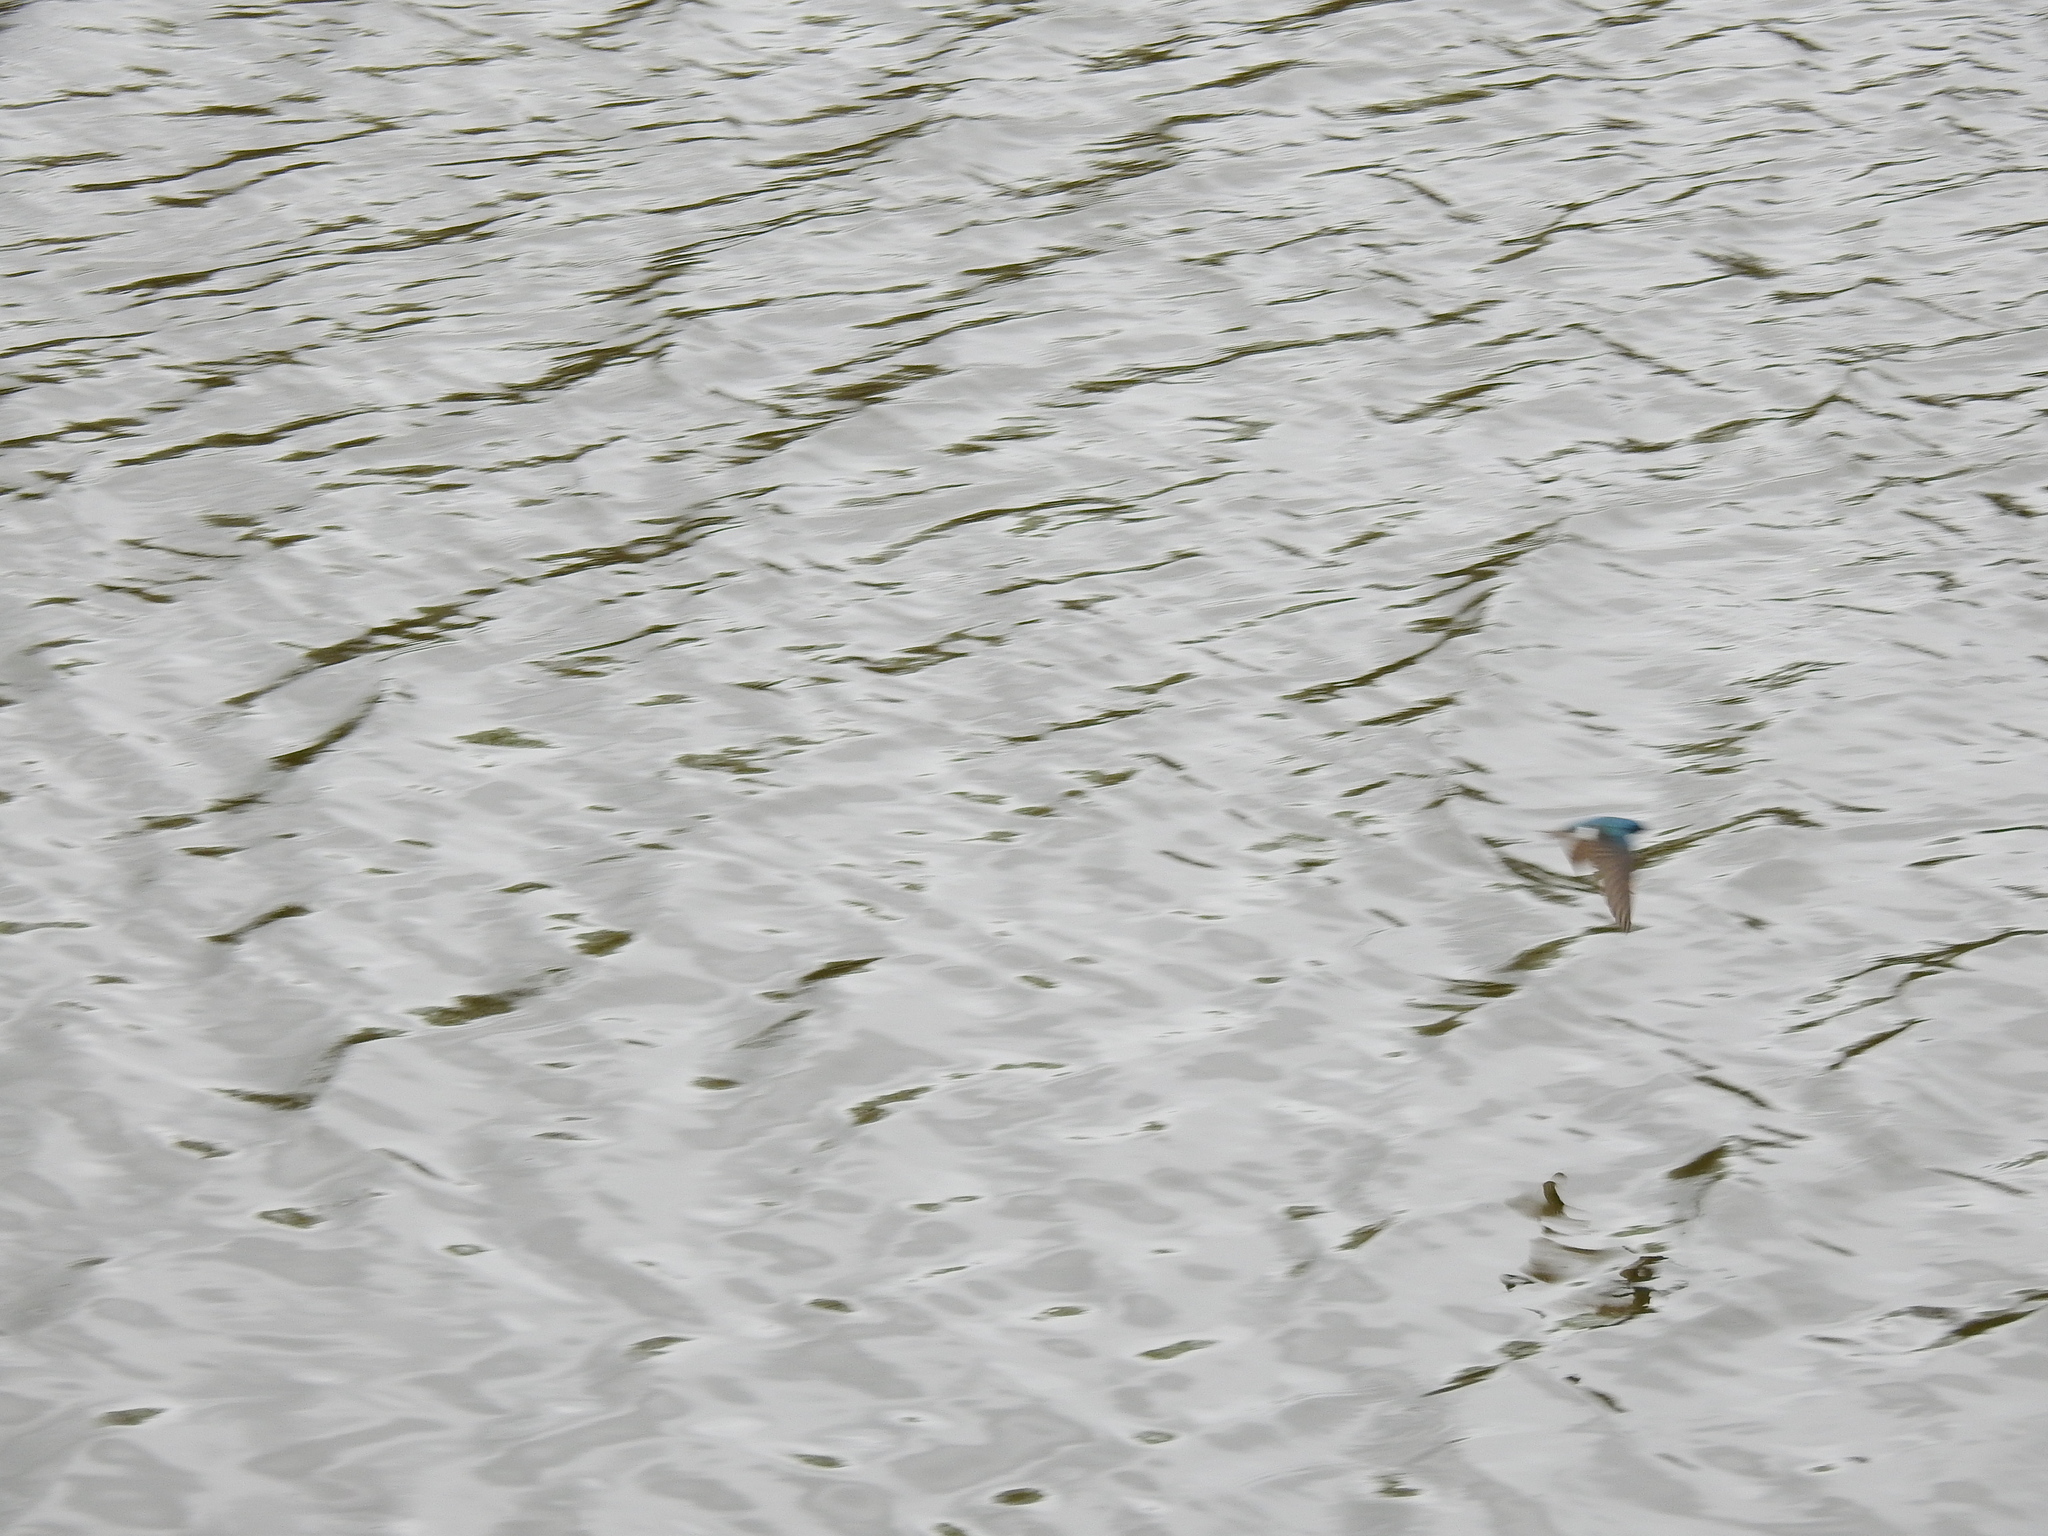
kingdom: Animalia
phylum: Chordata
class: Aves
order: Passeriformes
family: Hirundinidae
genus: Tachycineta
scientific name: Tachycineta bicolor
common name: Tree swallow
